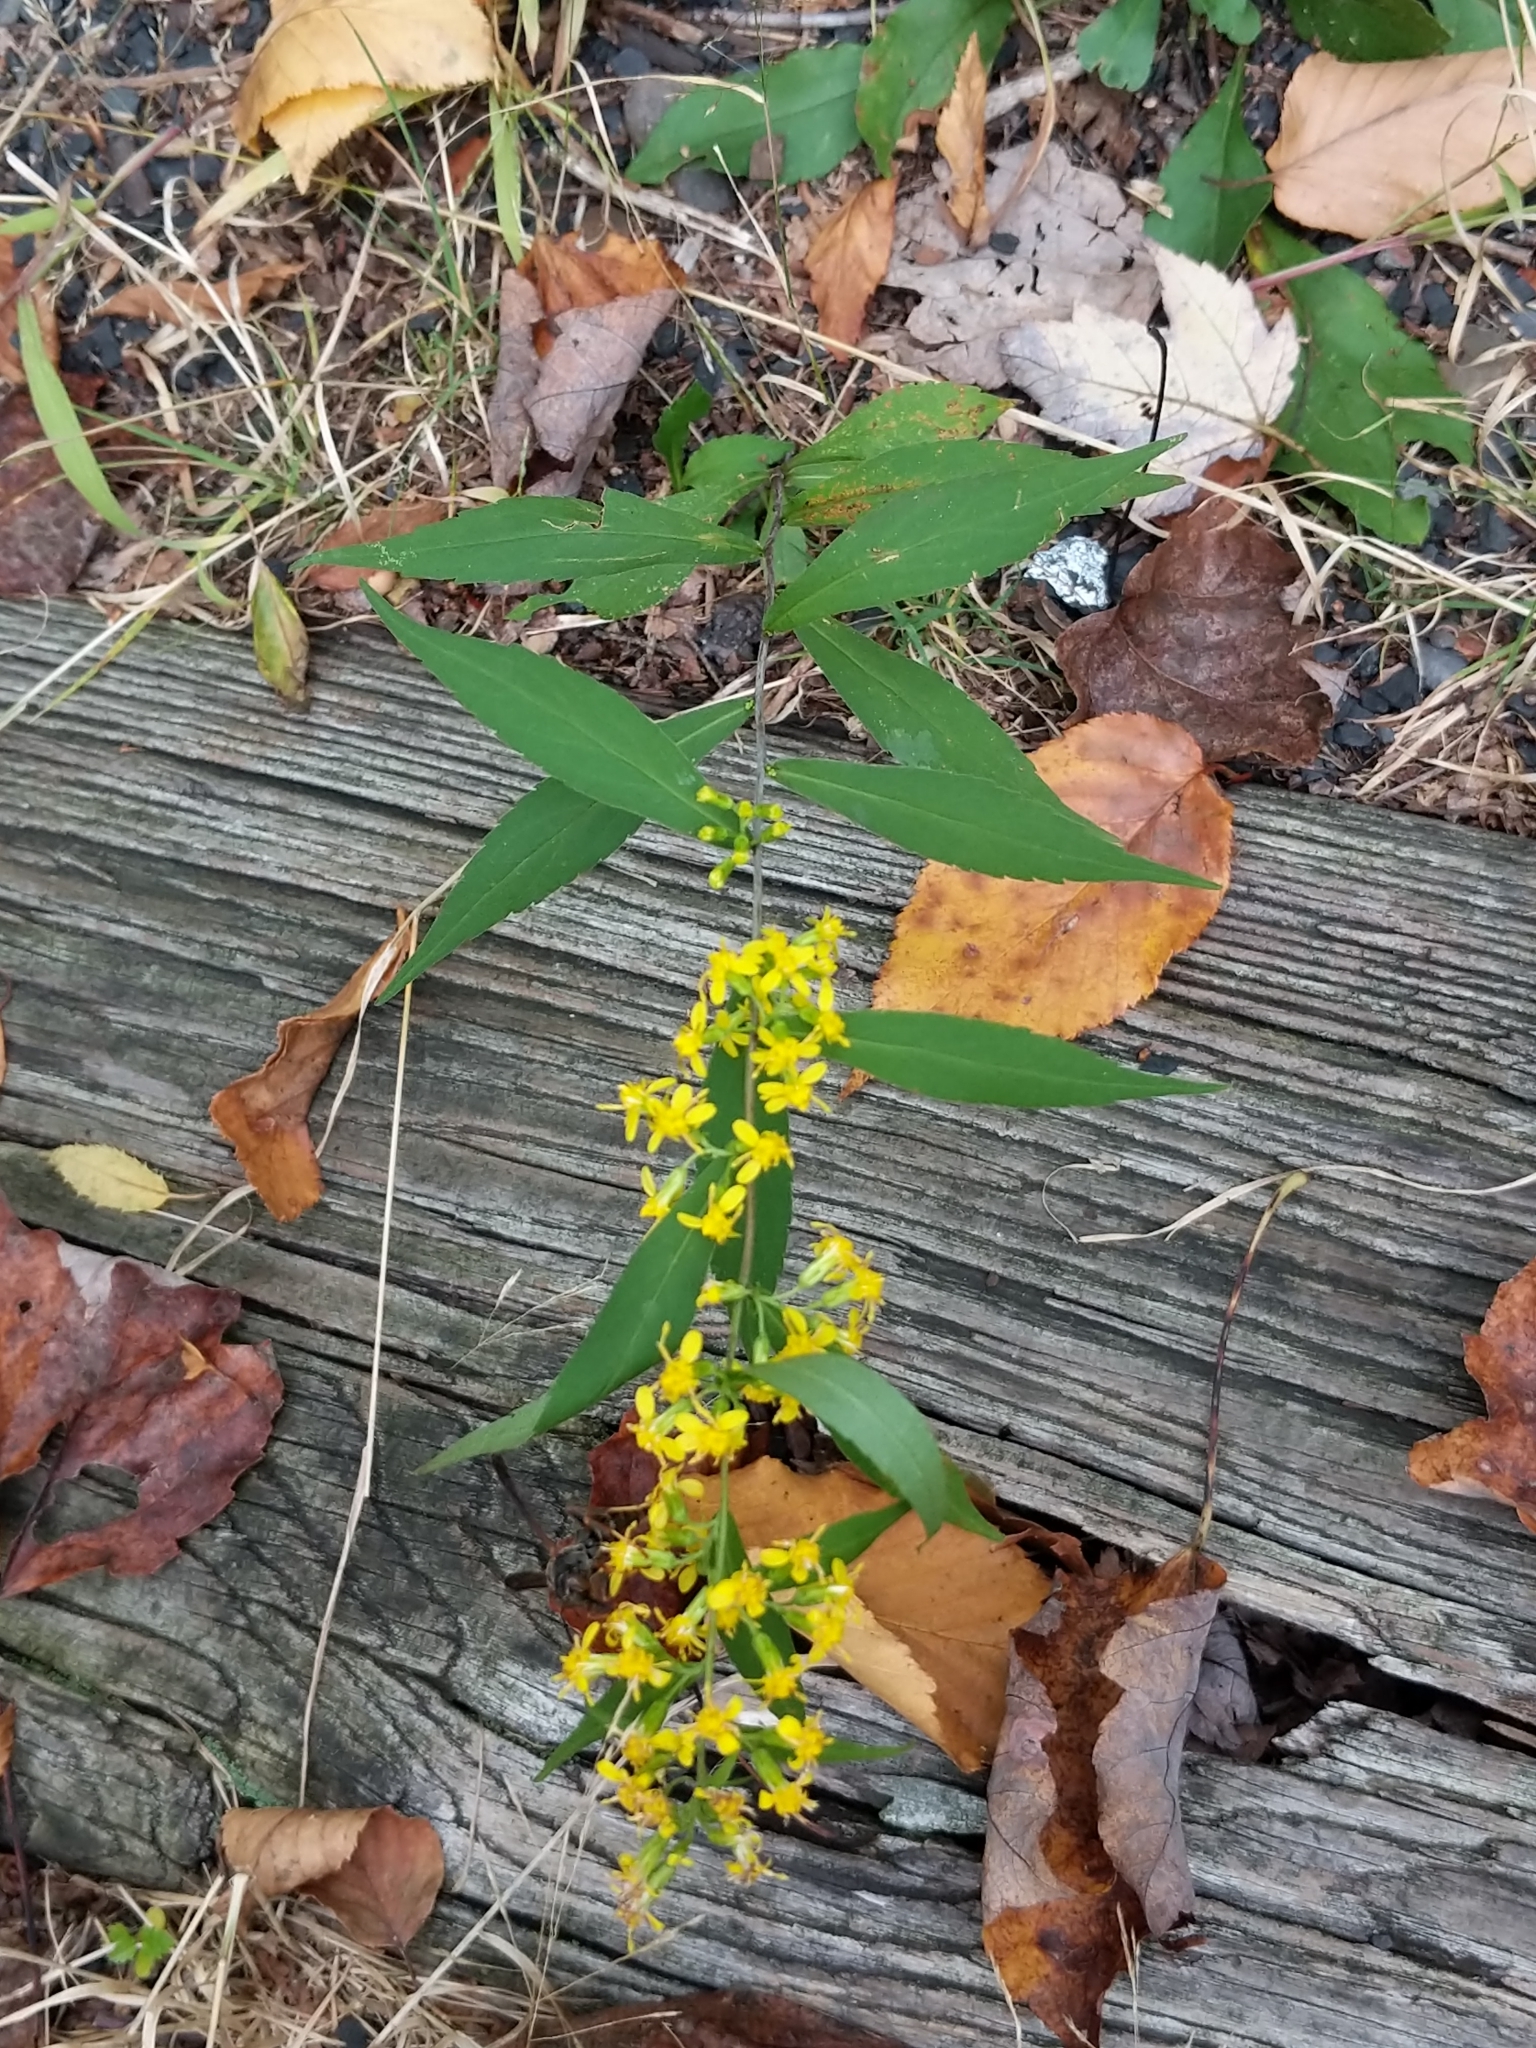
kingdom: Plantae
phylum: Tracheophyta
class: Magnoliopsida
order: Asterales
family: Asteraceae
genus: Solidago
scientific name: Solidago caesia
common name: Woodland goldenrod
